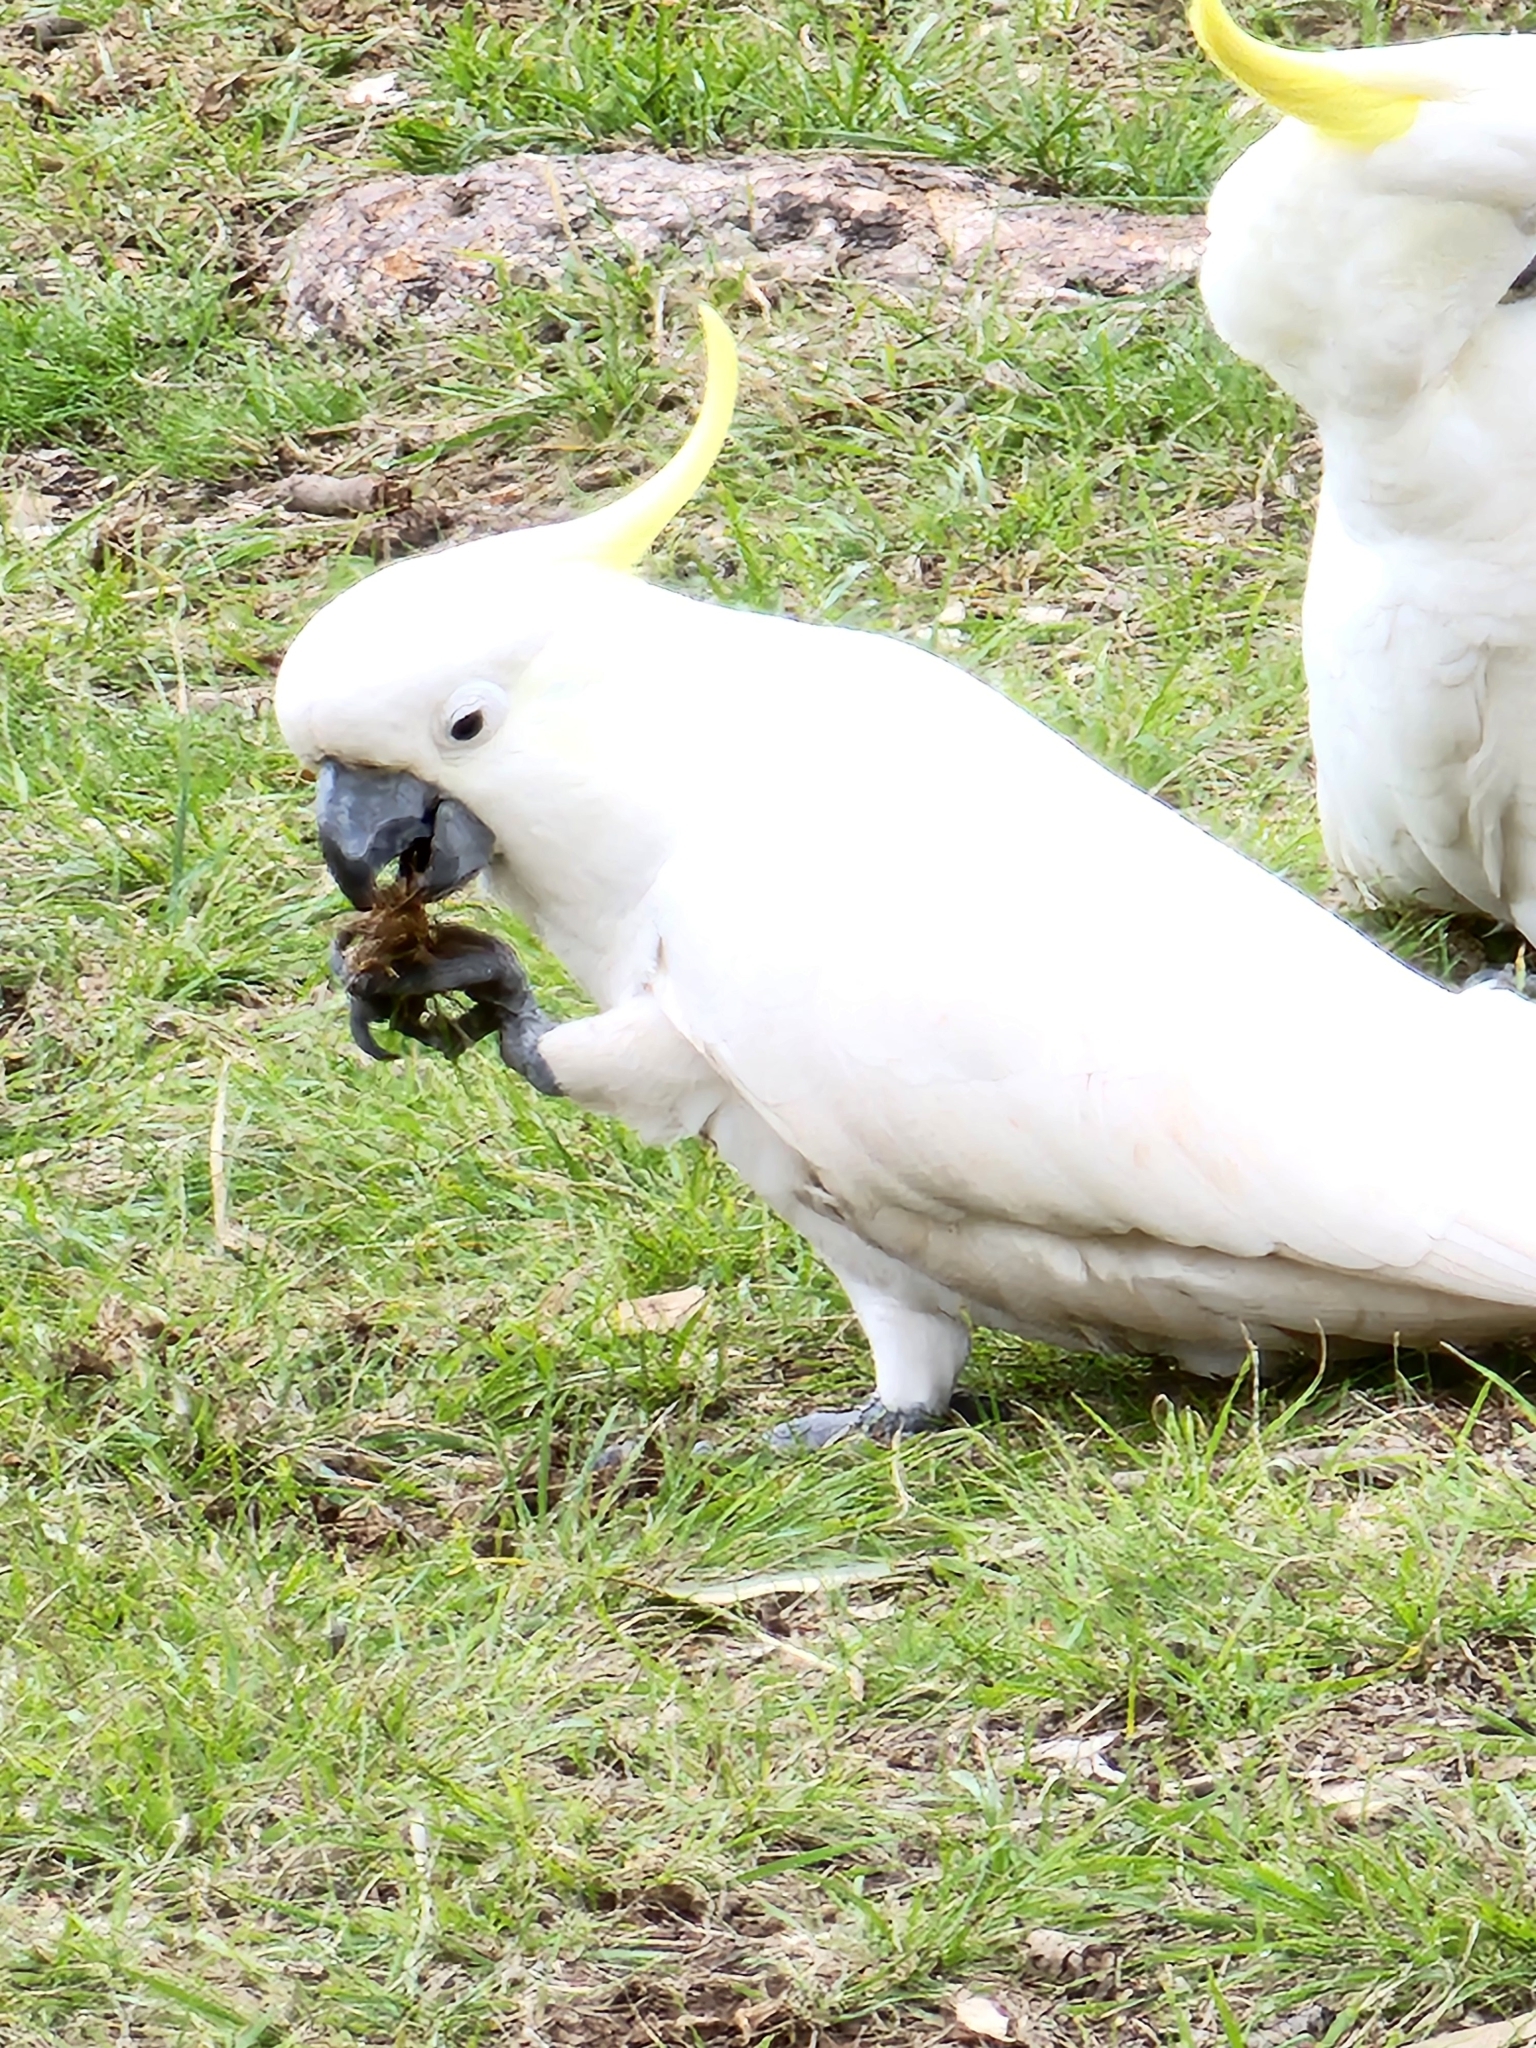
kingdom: Animalia
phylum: Chordata
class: Aves
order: Psittaciformes
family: Psittacidae
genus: Cacatua
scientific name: Cacatua galerita
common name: Sulphur-crested cockatoo
